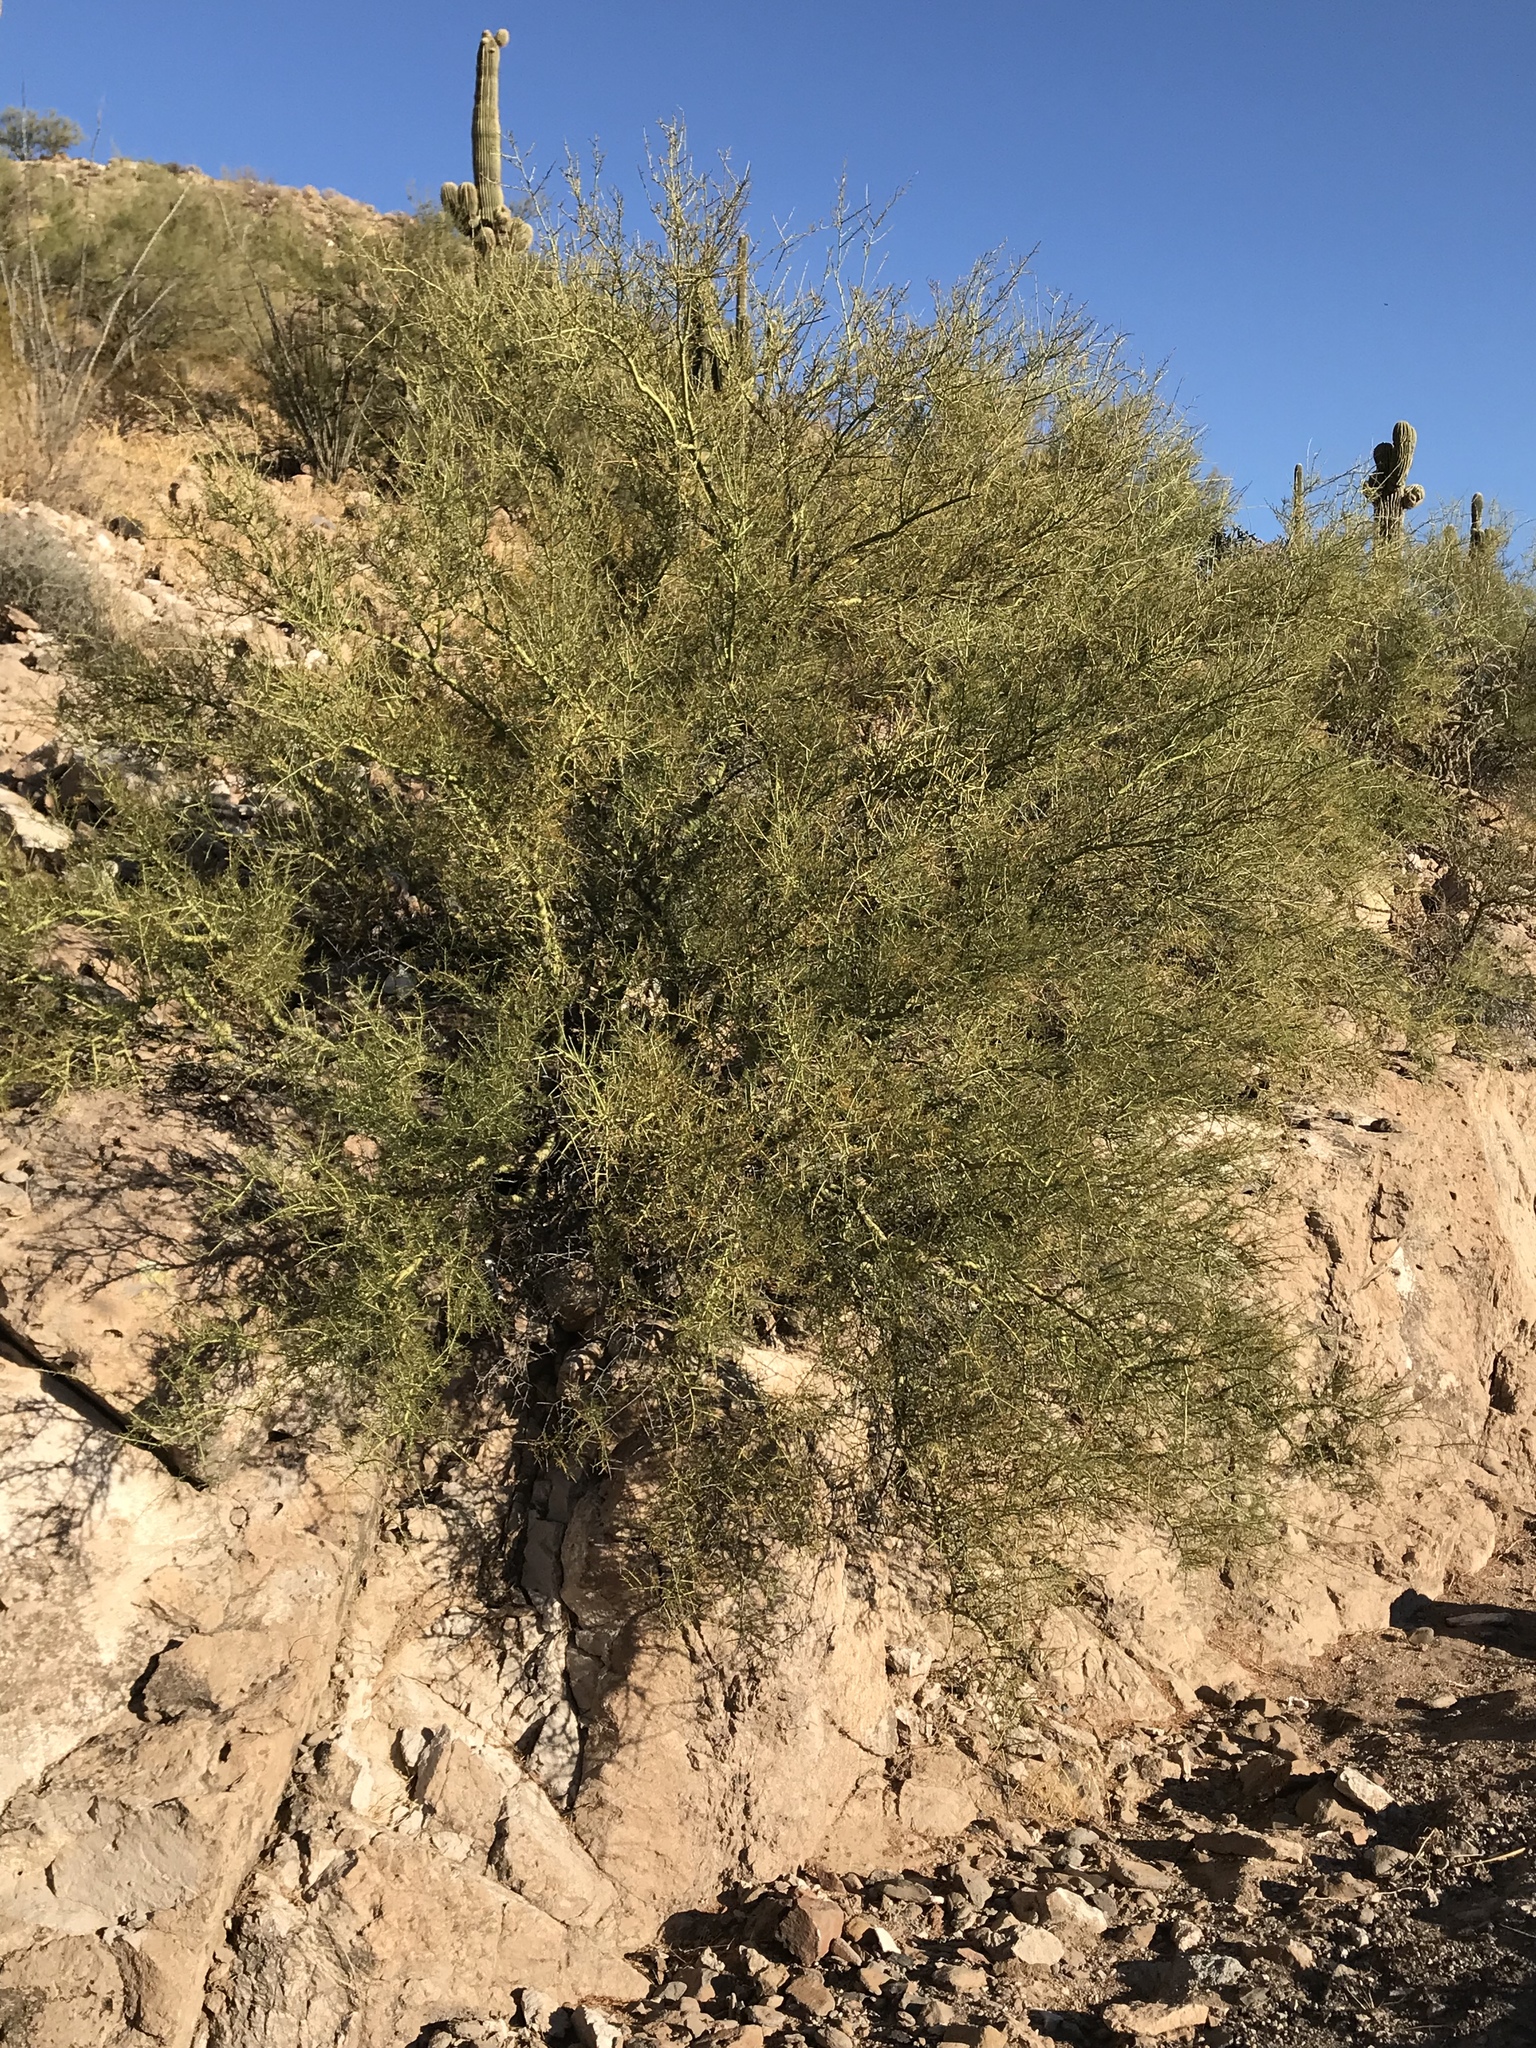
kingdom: Plantae
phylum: Tracheophyta
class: Magnoliopsida
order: Fabales
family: Fabaceae
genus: Parkinsonia
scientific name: Parkinsonia microphylla
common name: Yellow paloverde
